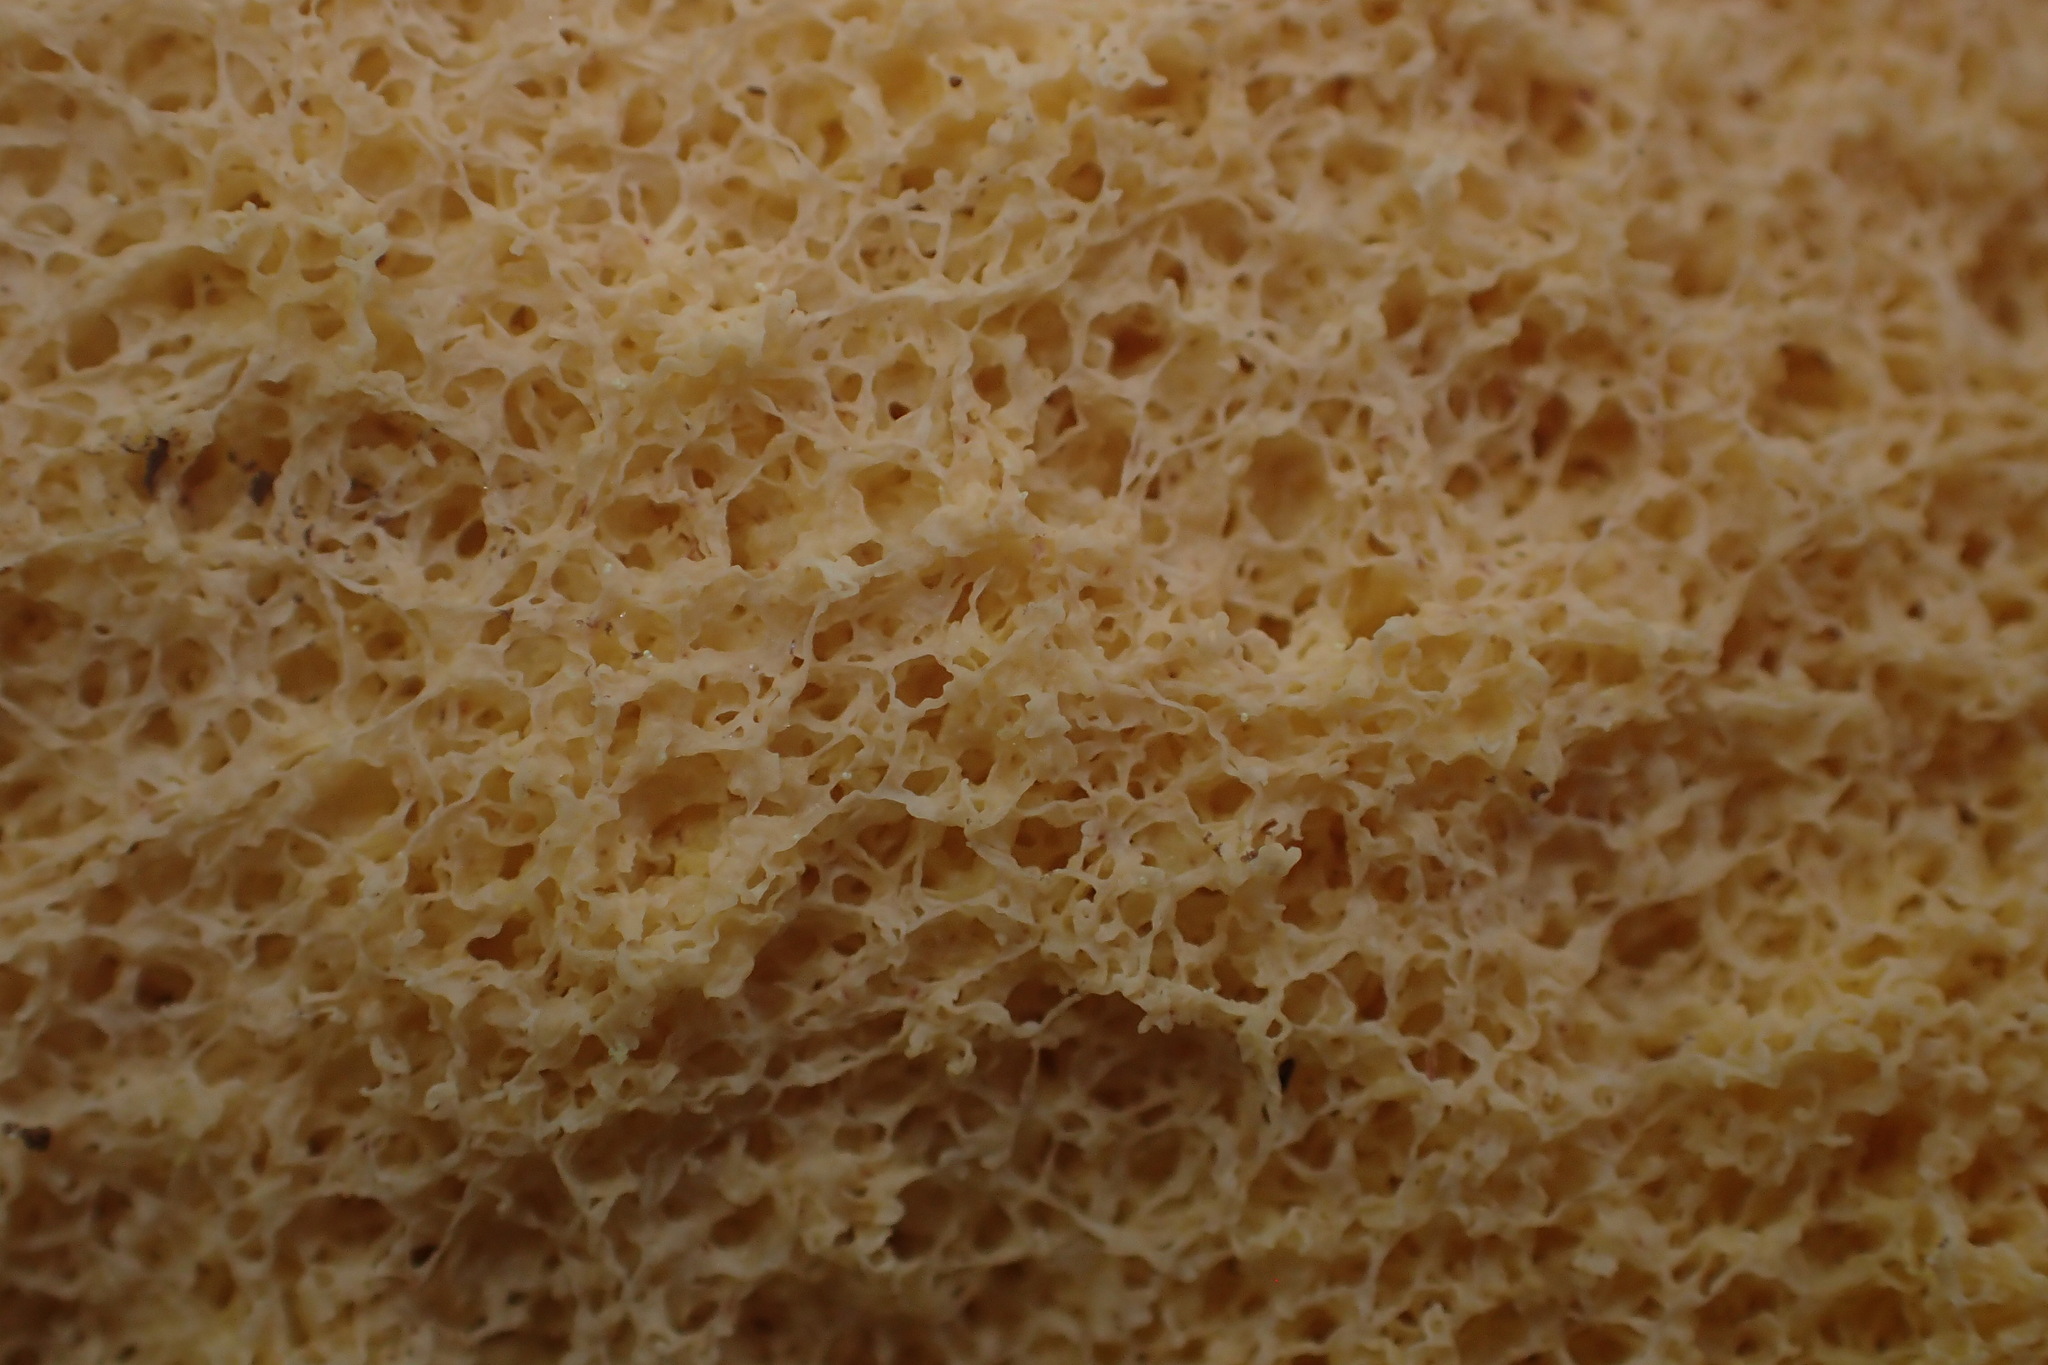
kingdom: Protozoa
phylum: Mycetozoa
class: Myxomycetes
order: Physarales
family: Physaraceae
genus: Fuligo
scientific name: Fuligo septica
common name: Dog vomit slime mold
